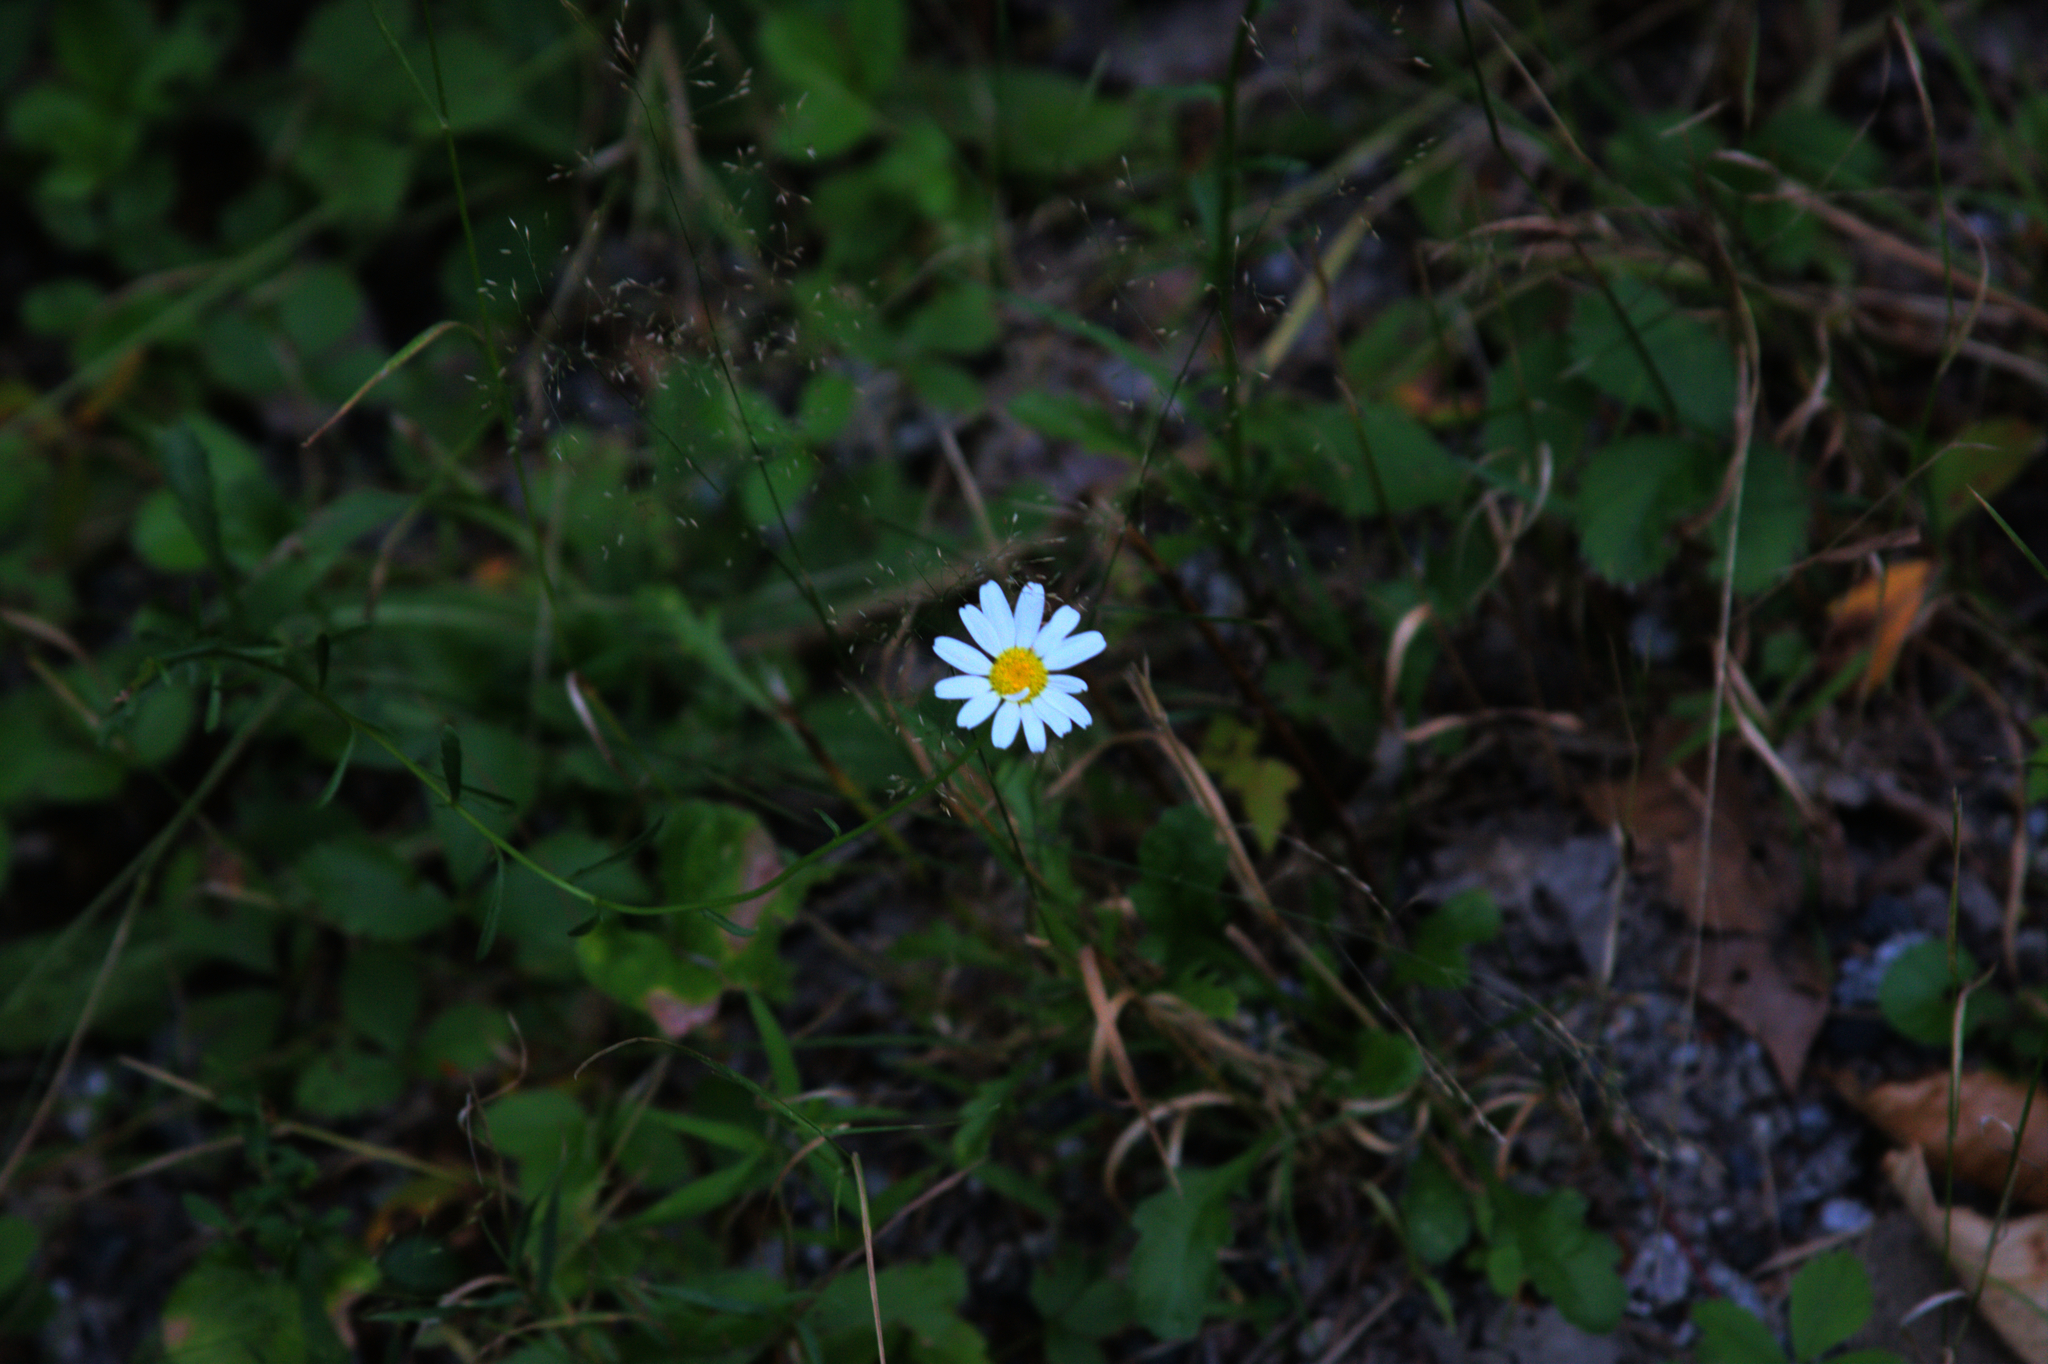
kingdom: Plantae
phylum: Tracheophyta
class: Magnoliopsida
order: Asterales
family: Asteraceae
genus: Leucanthemum
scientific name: Leucanthemum vulgare
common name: Oxeye daisy
